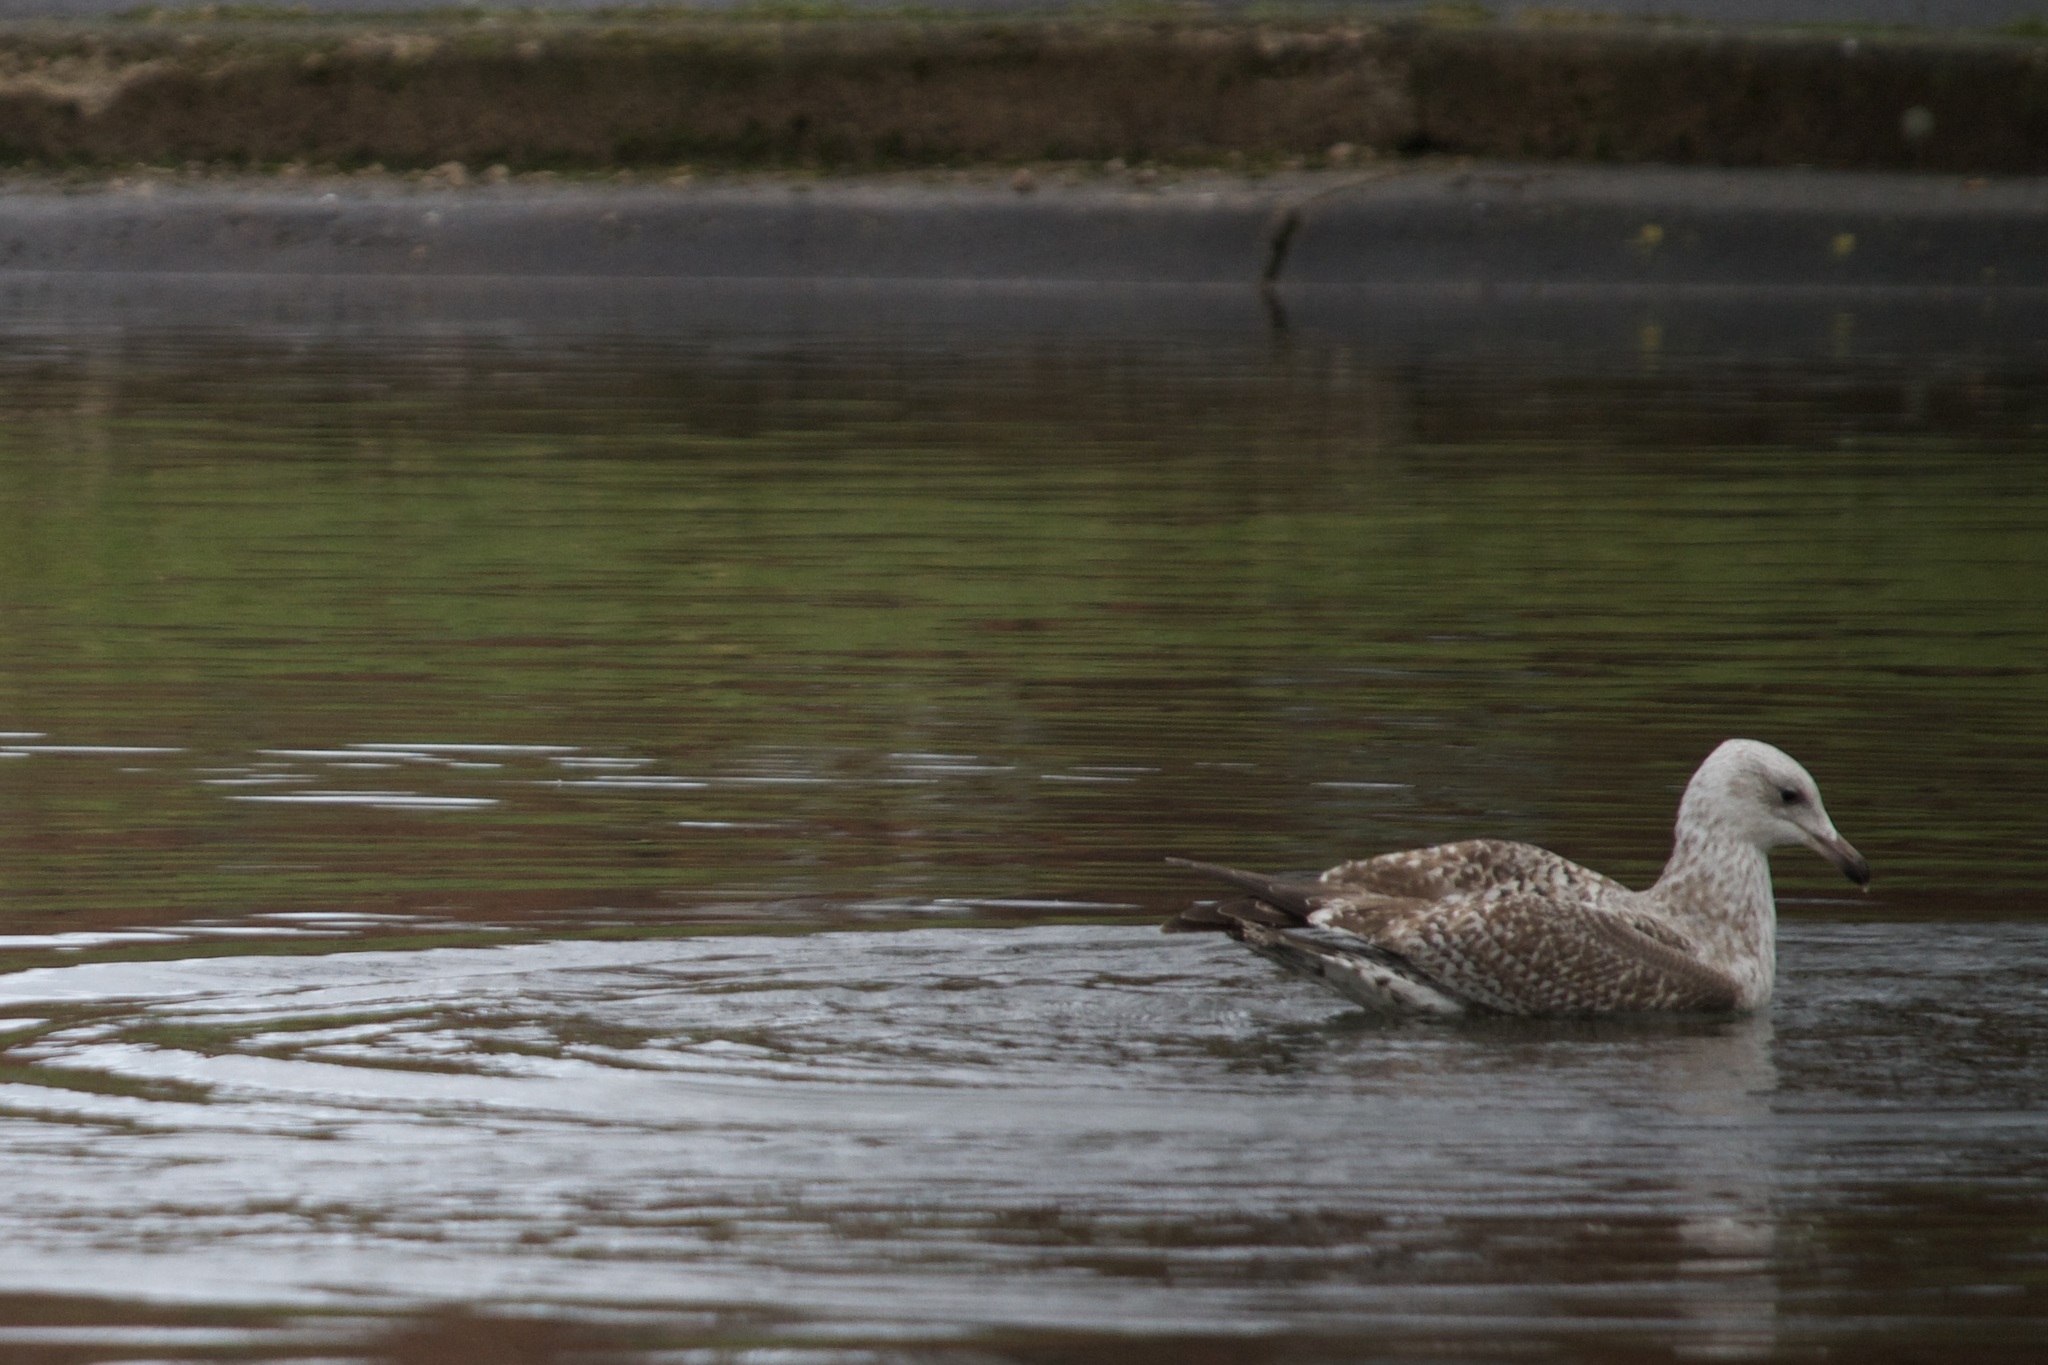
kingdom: Animalia
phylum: Chordata
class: Aves
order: Charadriiformes
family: Laridae
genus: Larus
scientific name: Larus argentatus
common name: Herring gull
